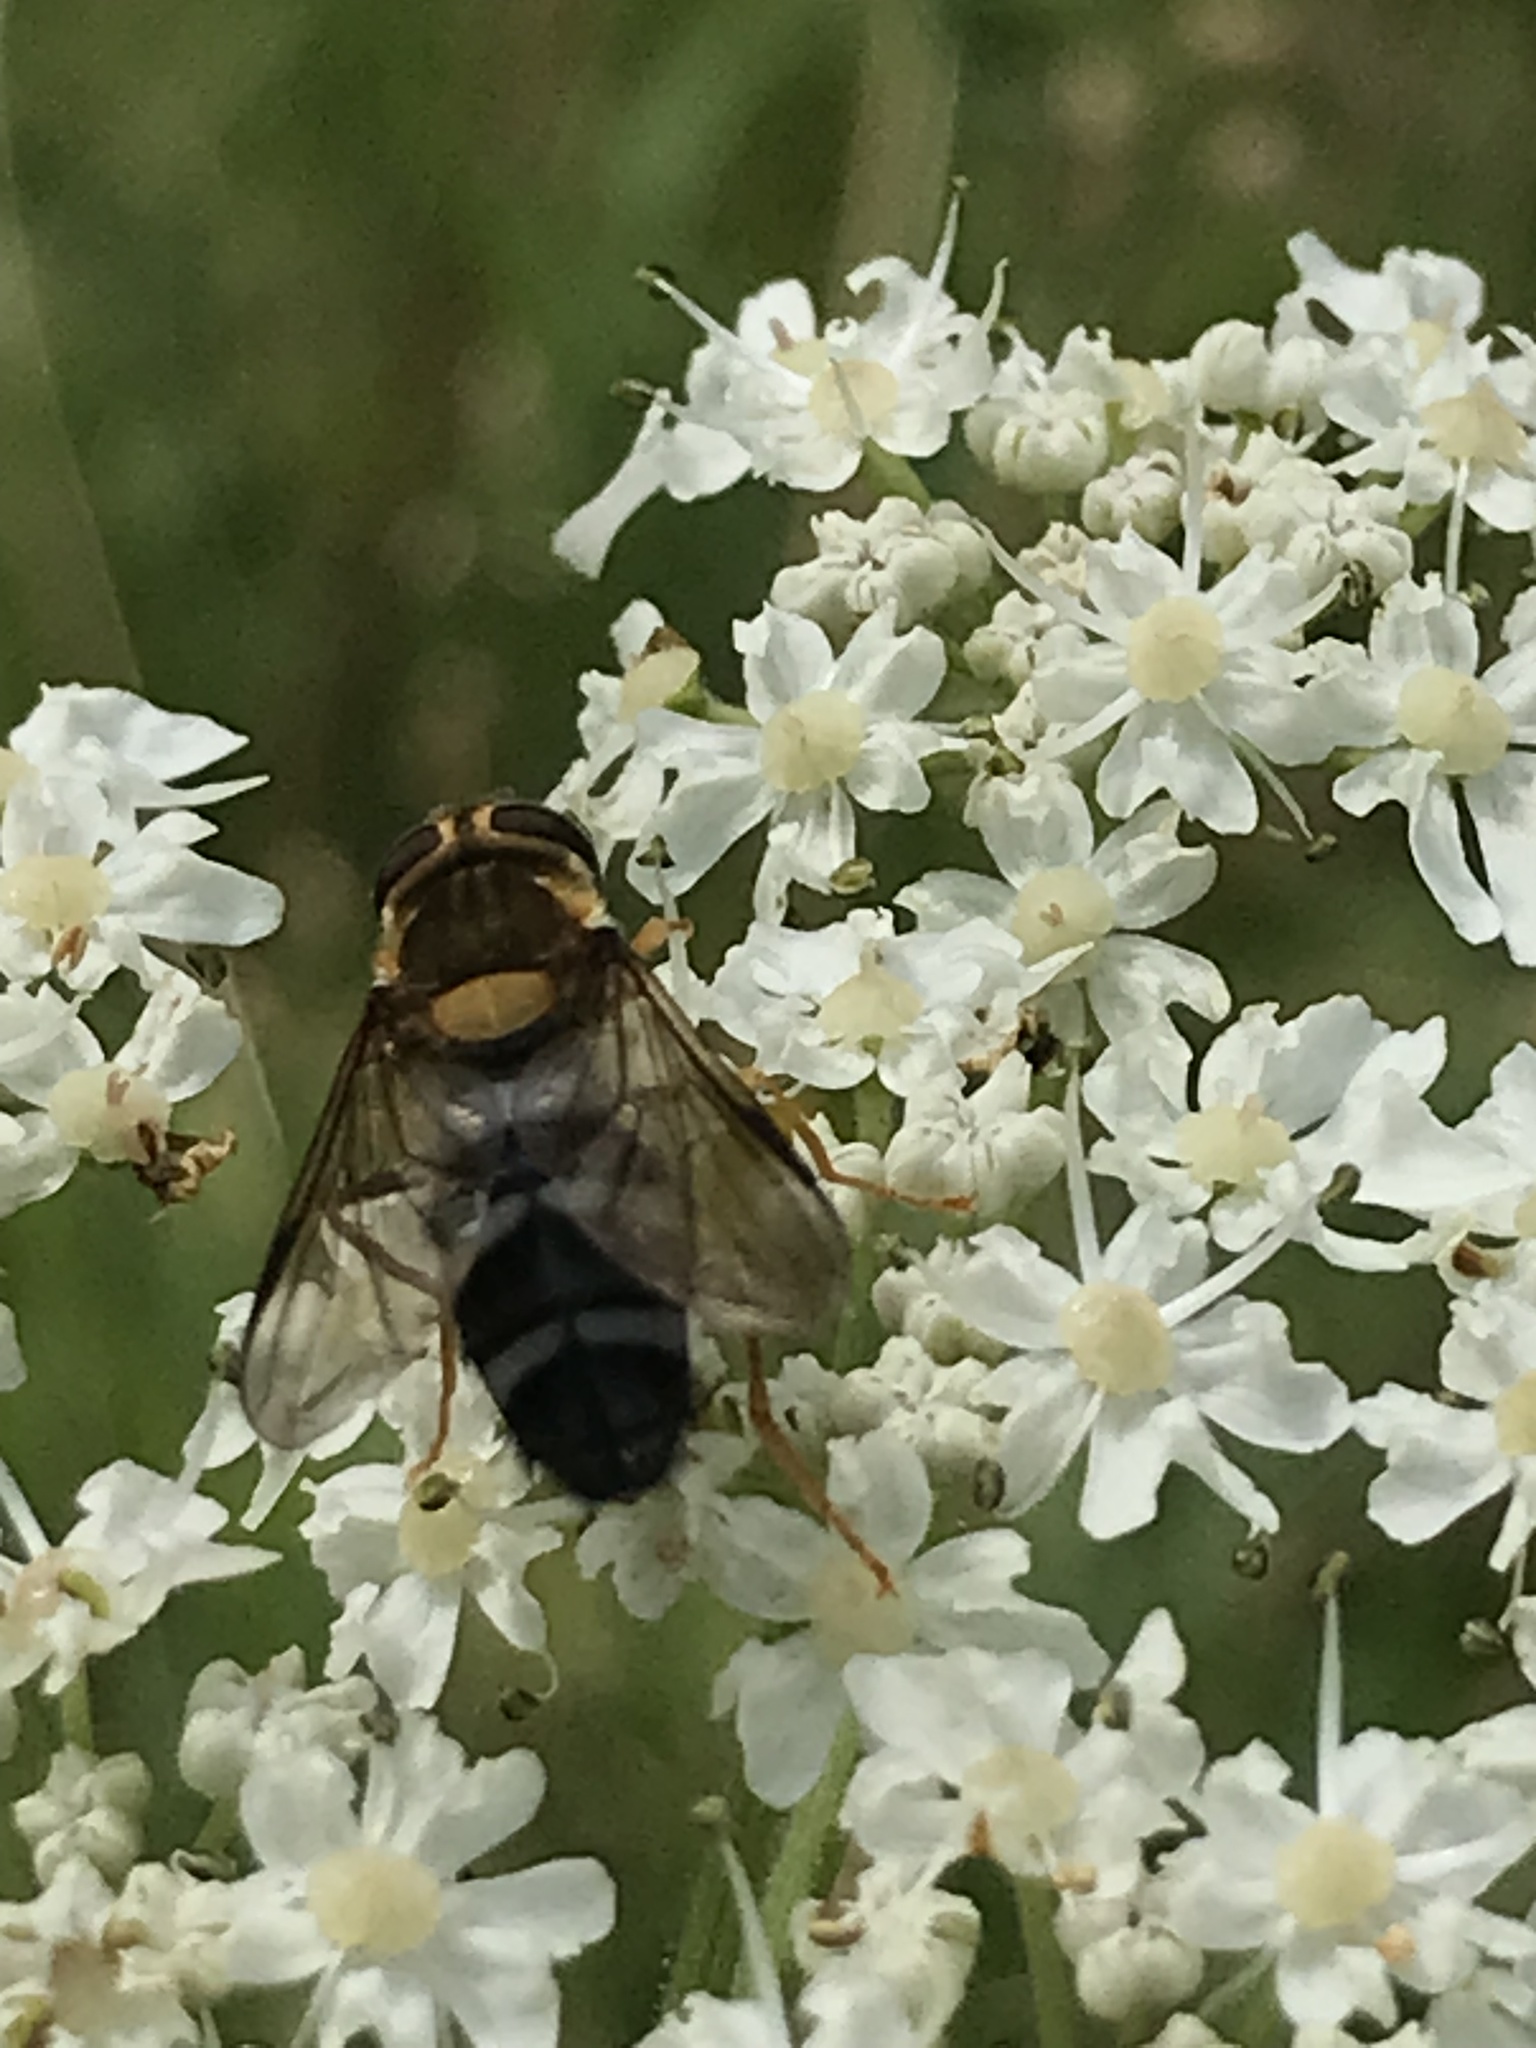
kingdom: Animalia
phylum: Arthropoda
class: Insecta
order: Diptera
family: Syrphidae
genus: Leucozona
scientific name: Leucozona glaucia
